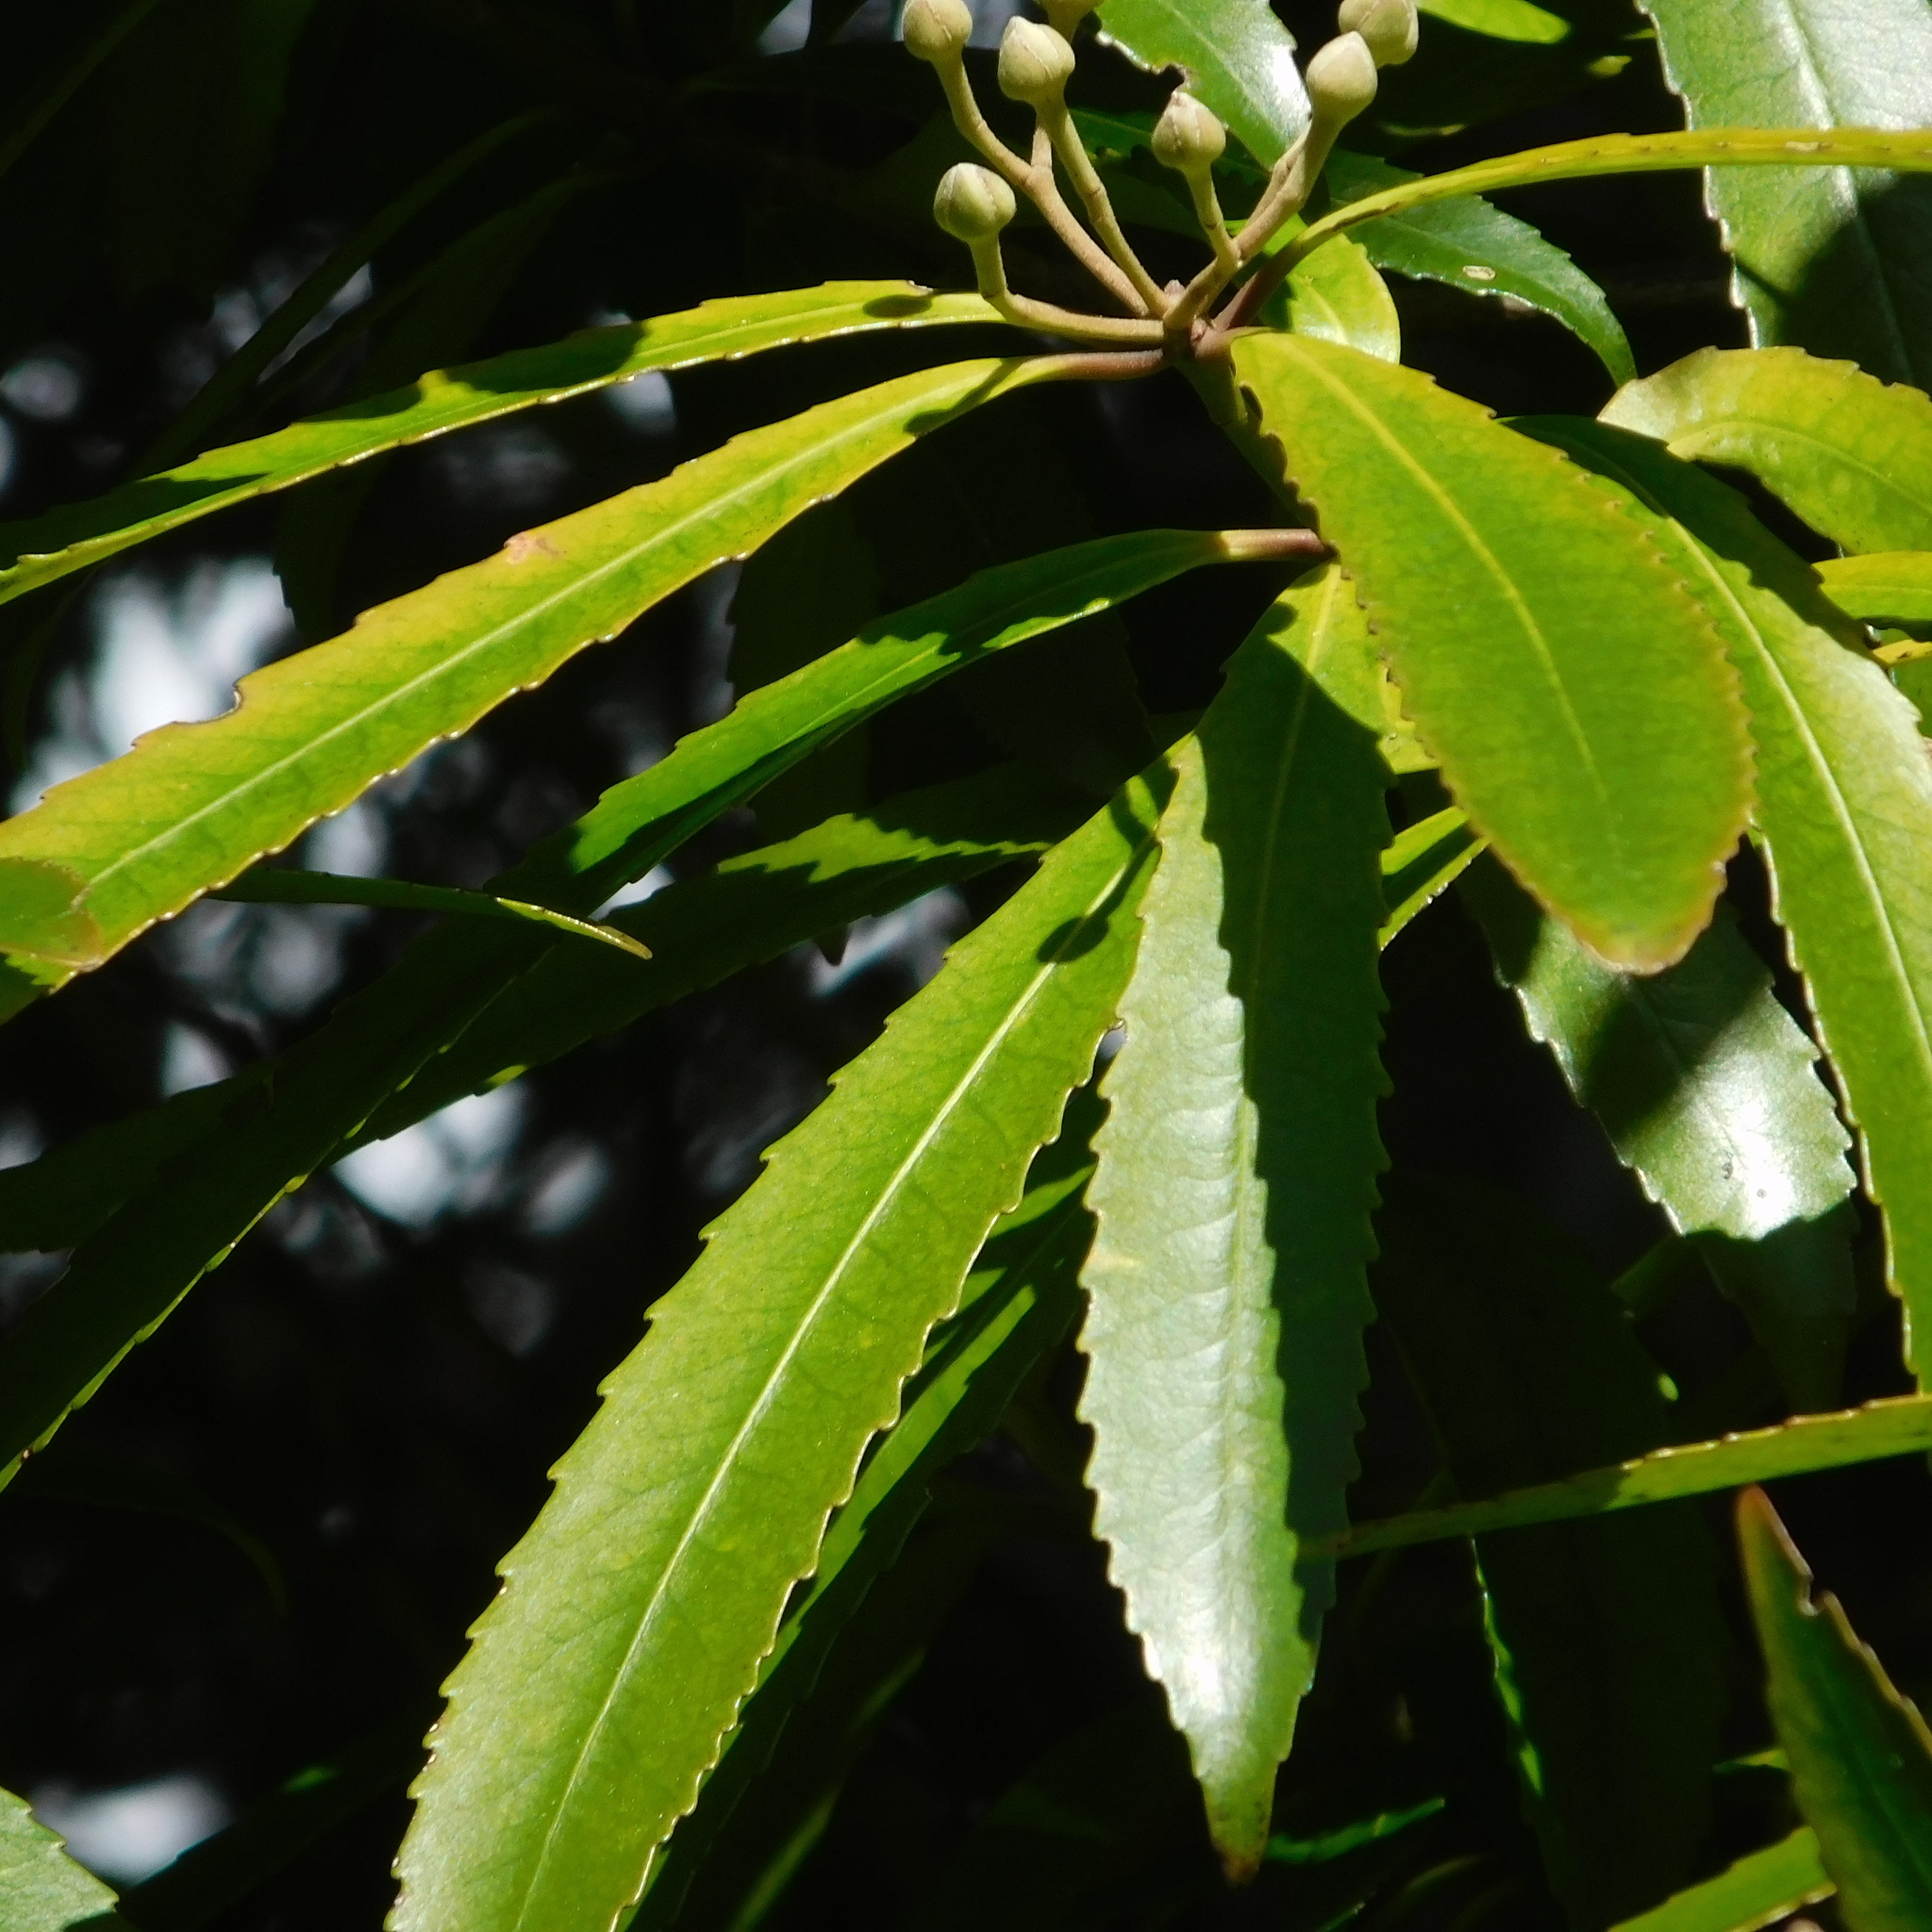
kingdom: Plantae
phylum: Tracheophyta
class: Magnoliopsida
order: Crossosomatales
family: Ixerbaceae
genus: Ixerba
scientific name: Ixerba brexioides
